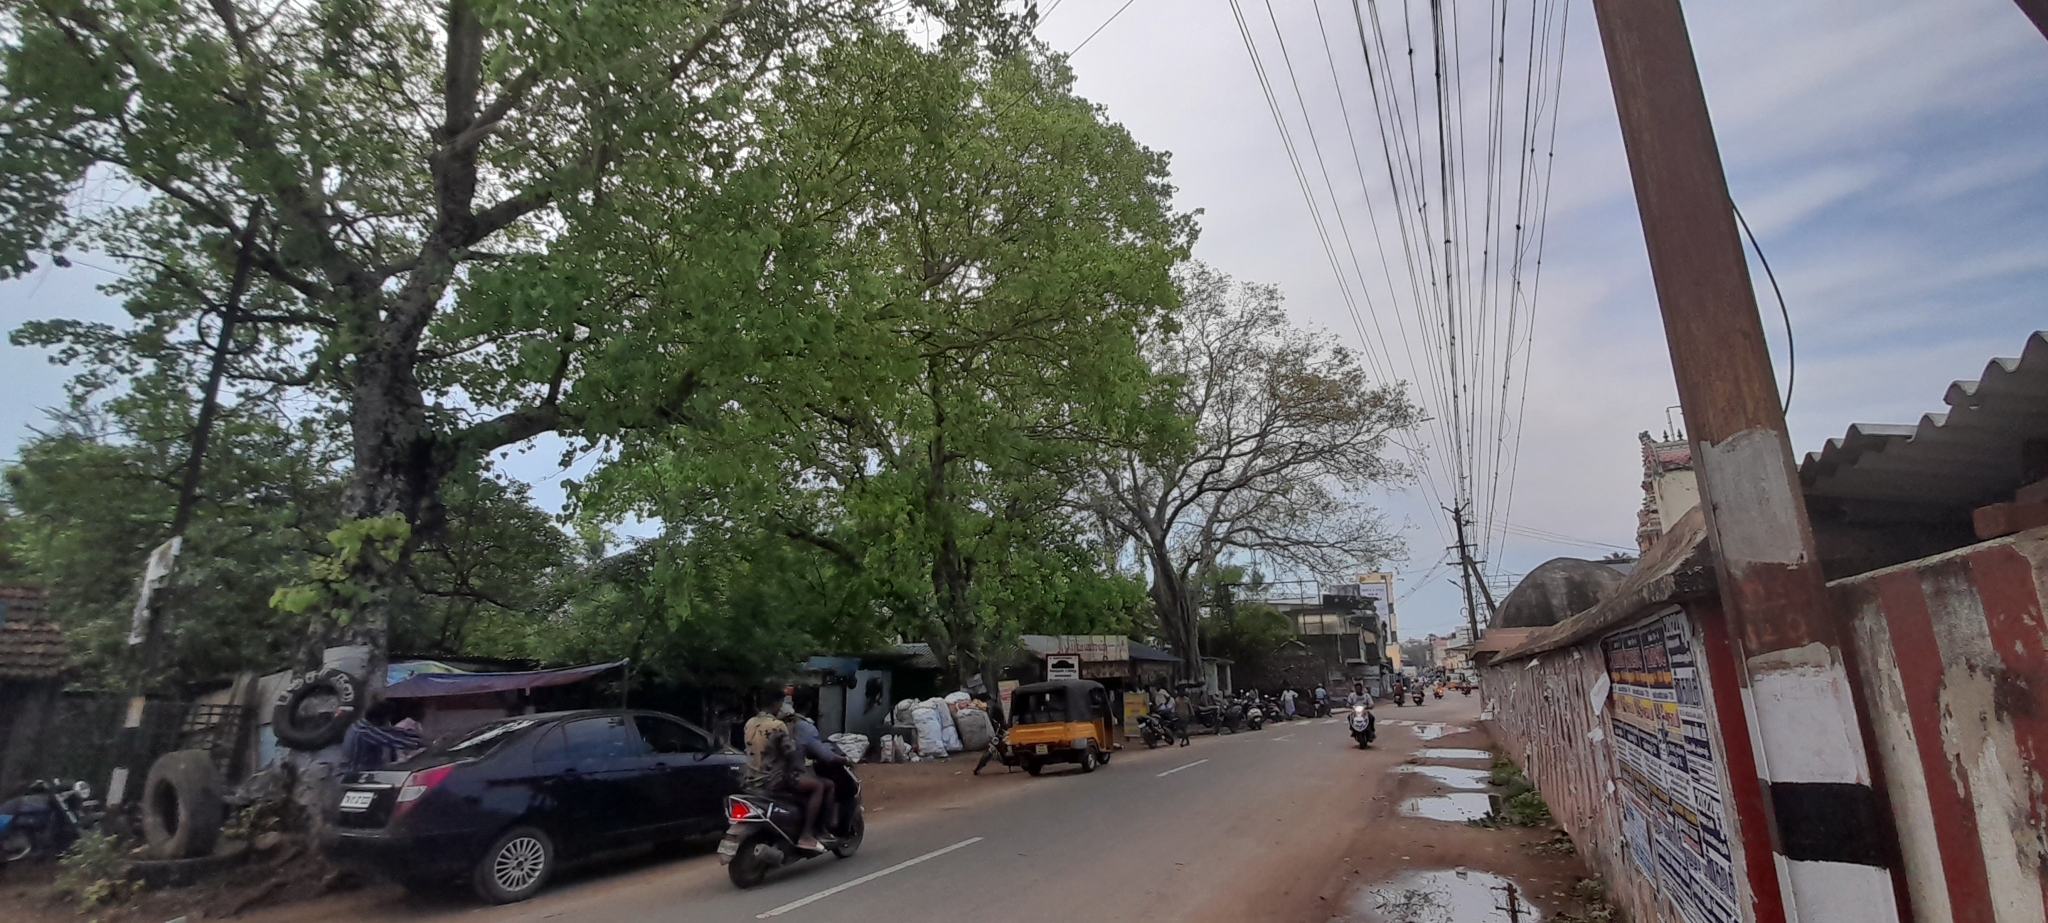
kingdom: Plantae
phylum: Tracheophyta
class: Magnoliopsida
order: Rosales
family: Moraceae
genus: Ficus
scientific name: Ficus religiosa
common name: Bodhi tree
